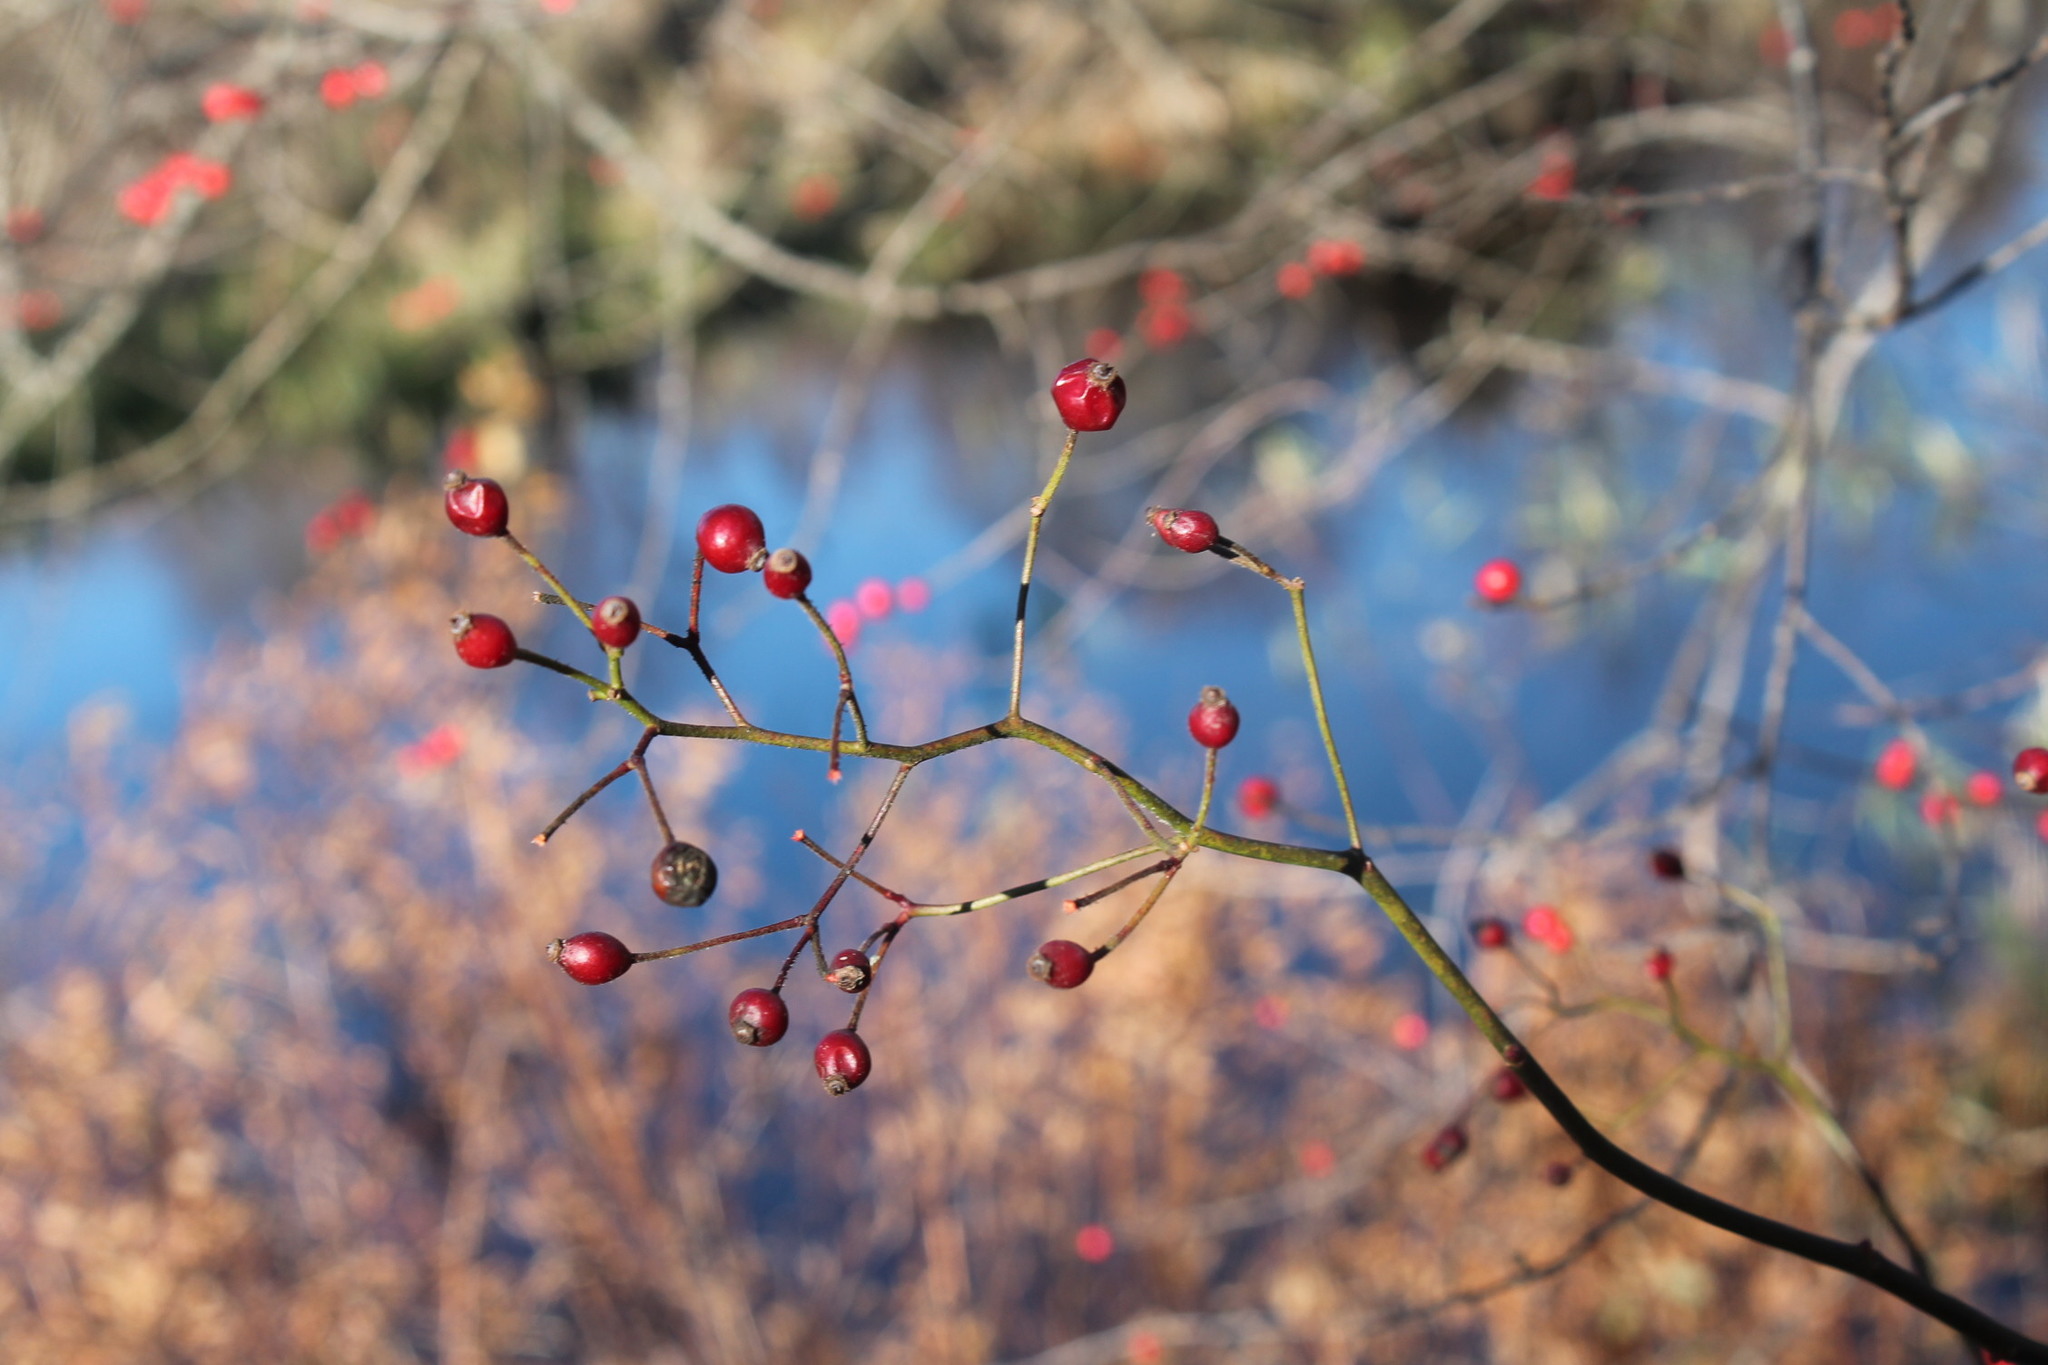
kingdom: Plantae
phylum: Tracheophyta
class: Magnoliopsida
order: Rosales
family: Rosaceae
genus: Rosa
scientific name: Rosa multiflora
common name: Multiflora rose
